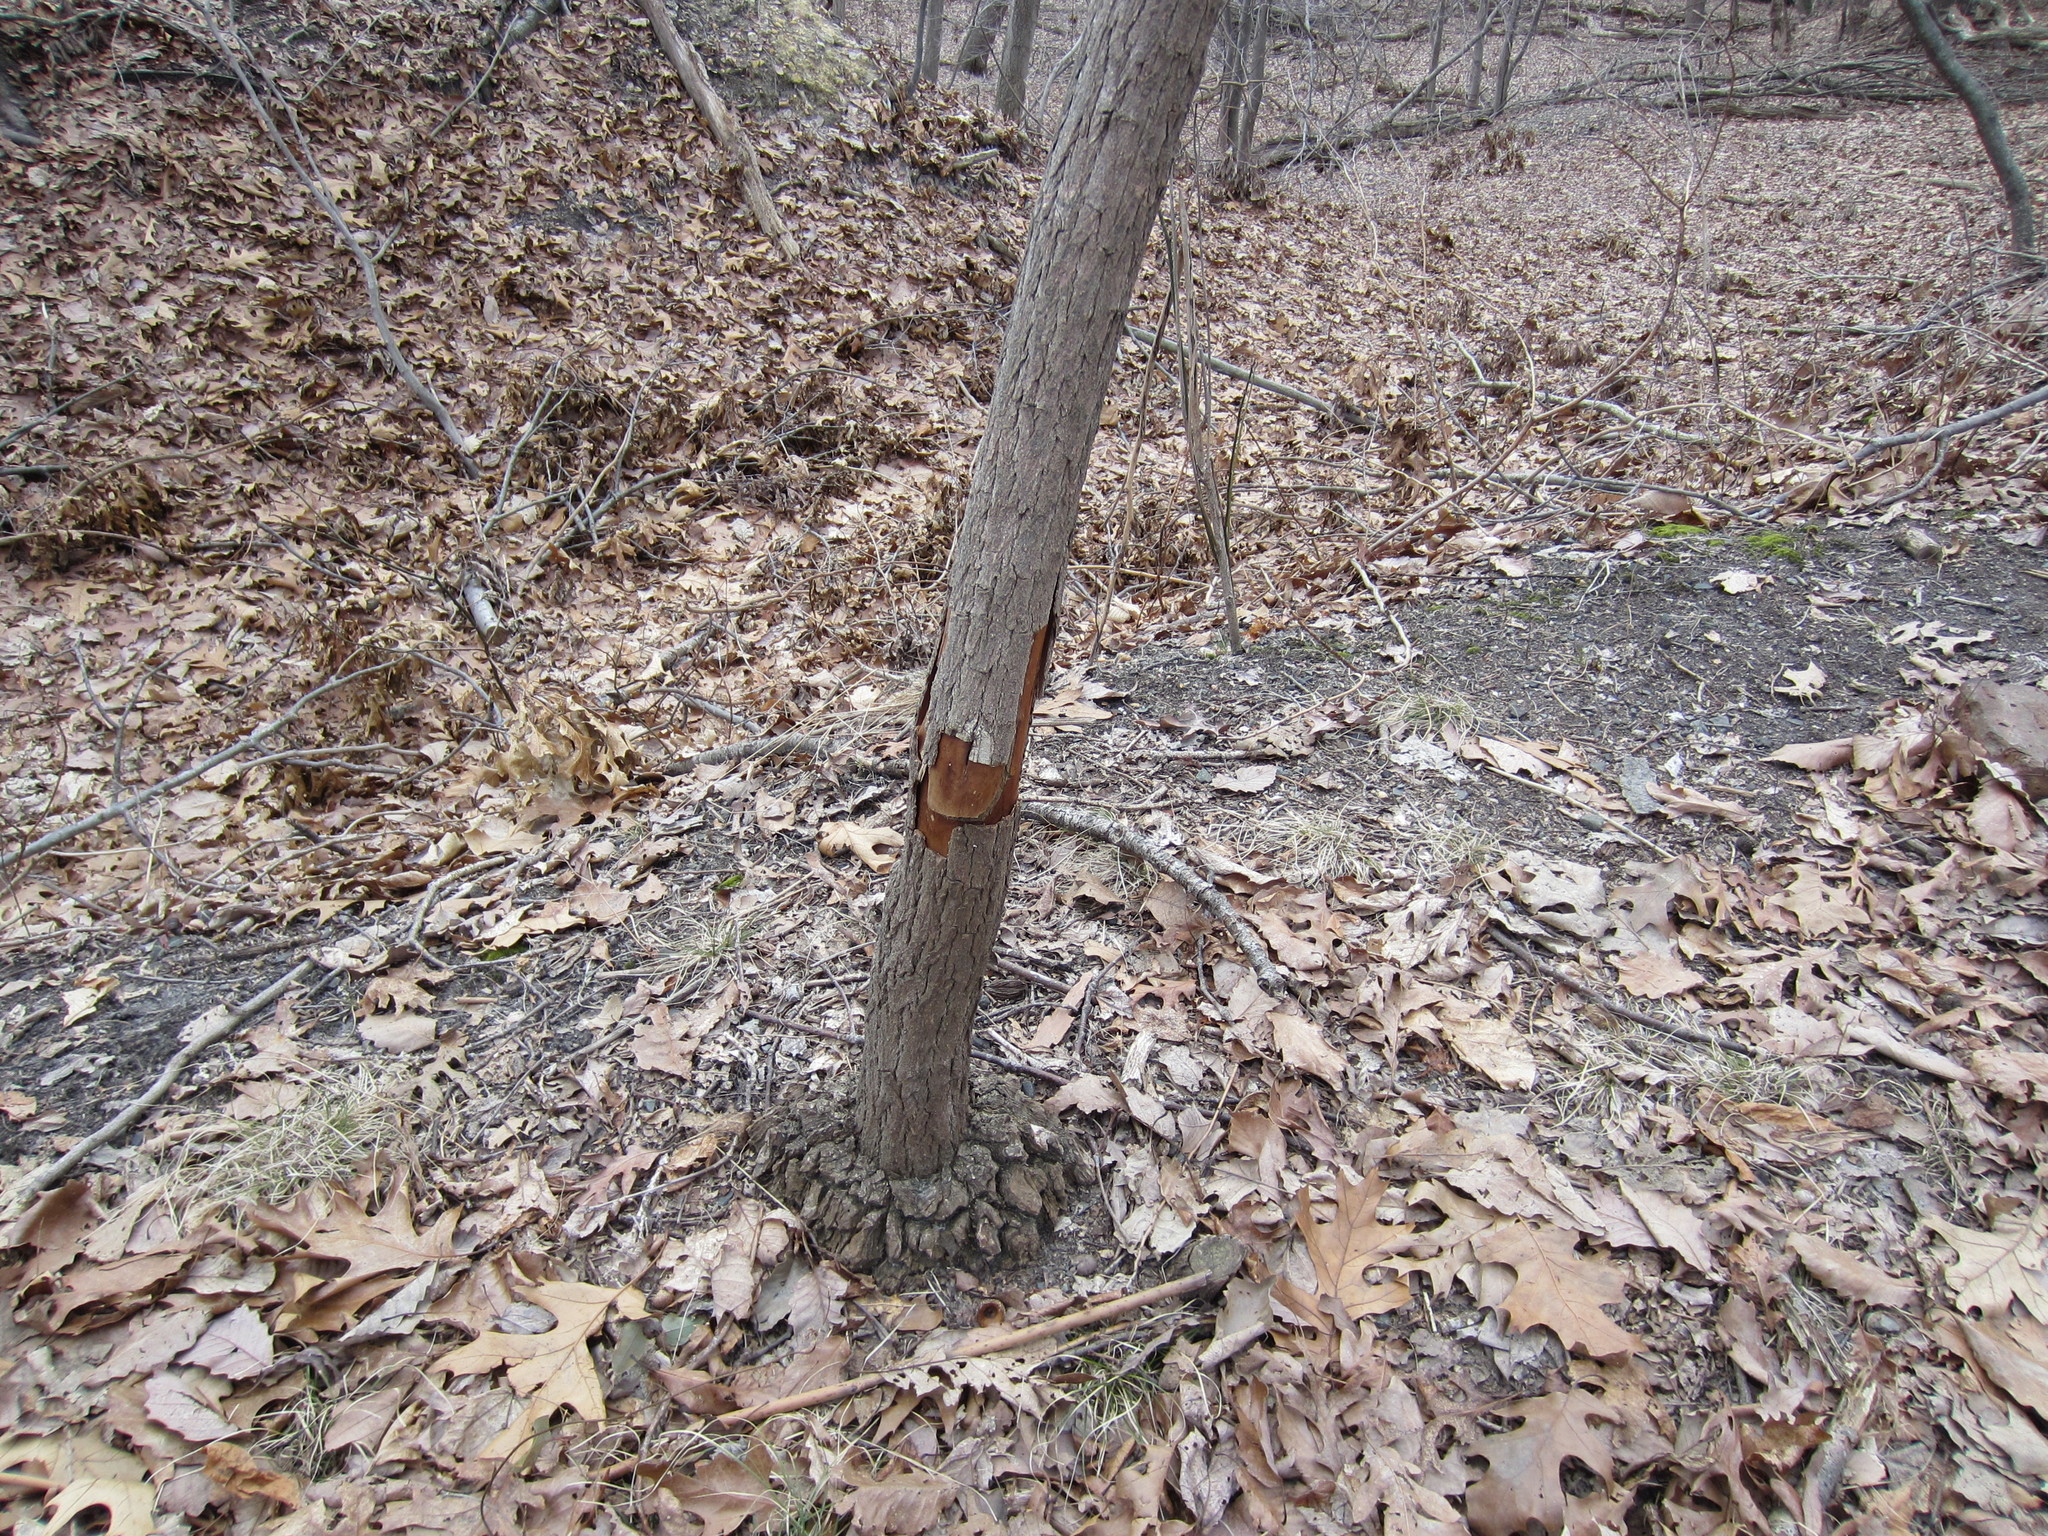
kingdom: Plantae
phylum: Tracheophyta
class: Magnoliopsida
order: Laurales
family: Lauraceae
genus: Sassafras
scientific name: Sassafras albidum
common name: Sassafras
